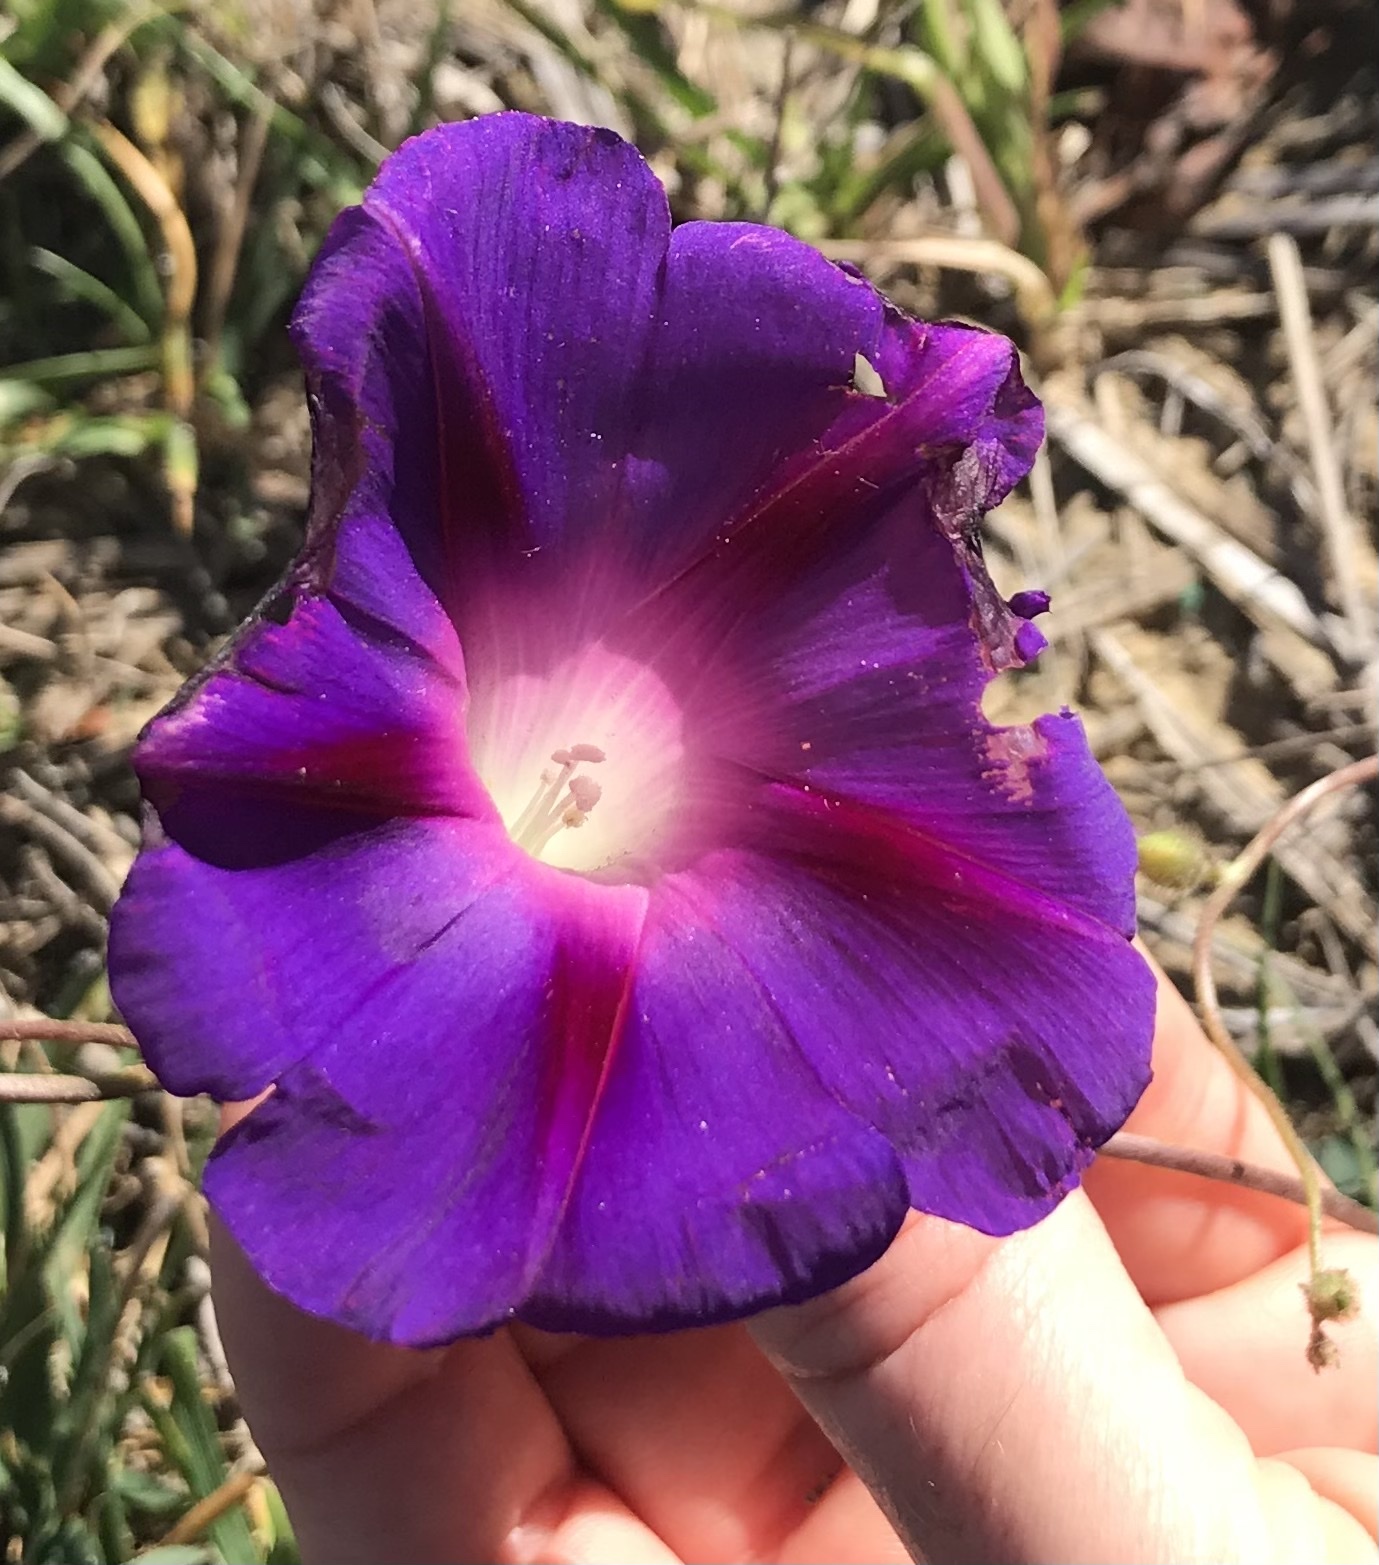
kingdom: Plantae
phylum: Tracheophyta
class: Magnoliopsida
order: Solanales
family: Convolvulaceae
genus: Ipomoea
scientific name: Ipomoea purpurea
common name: Common morning-glory
